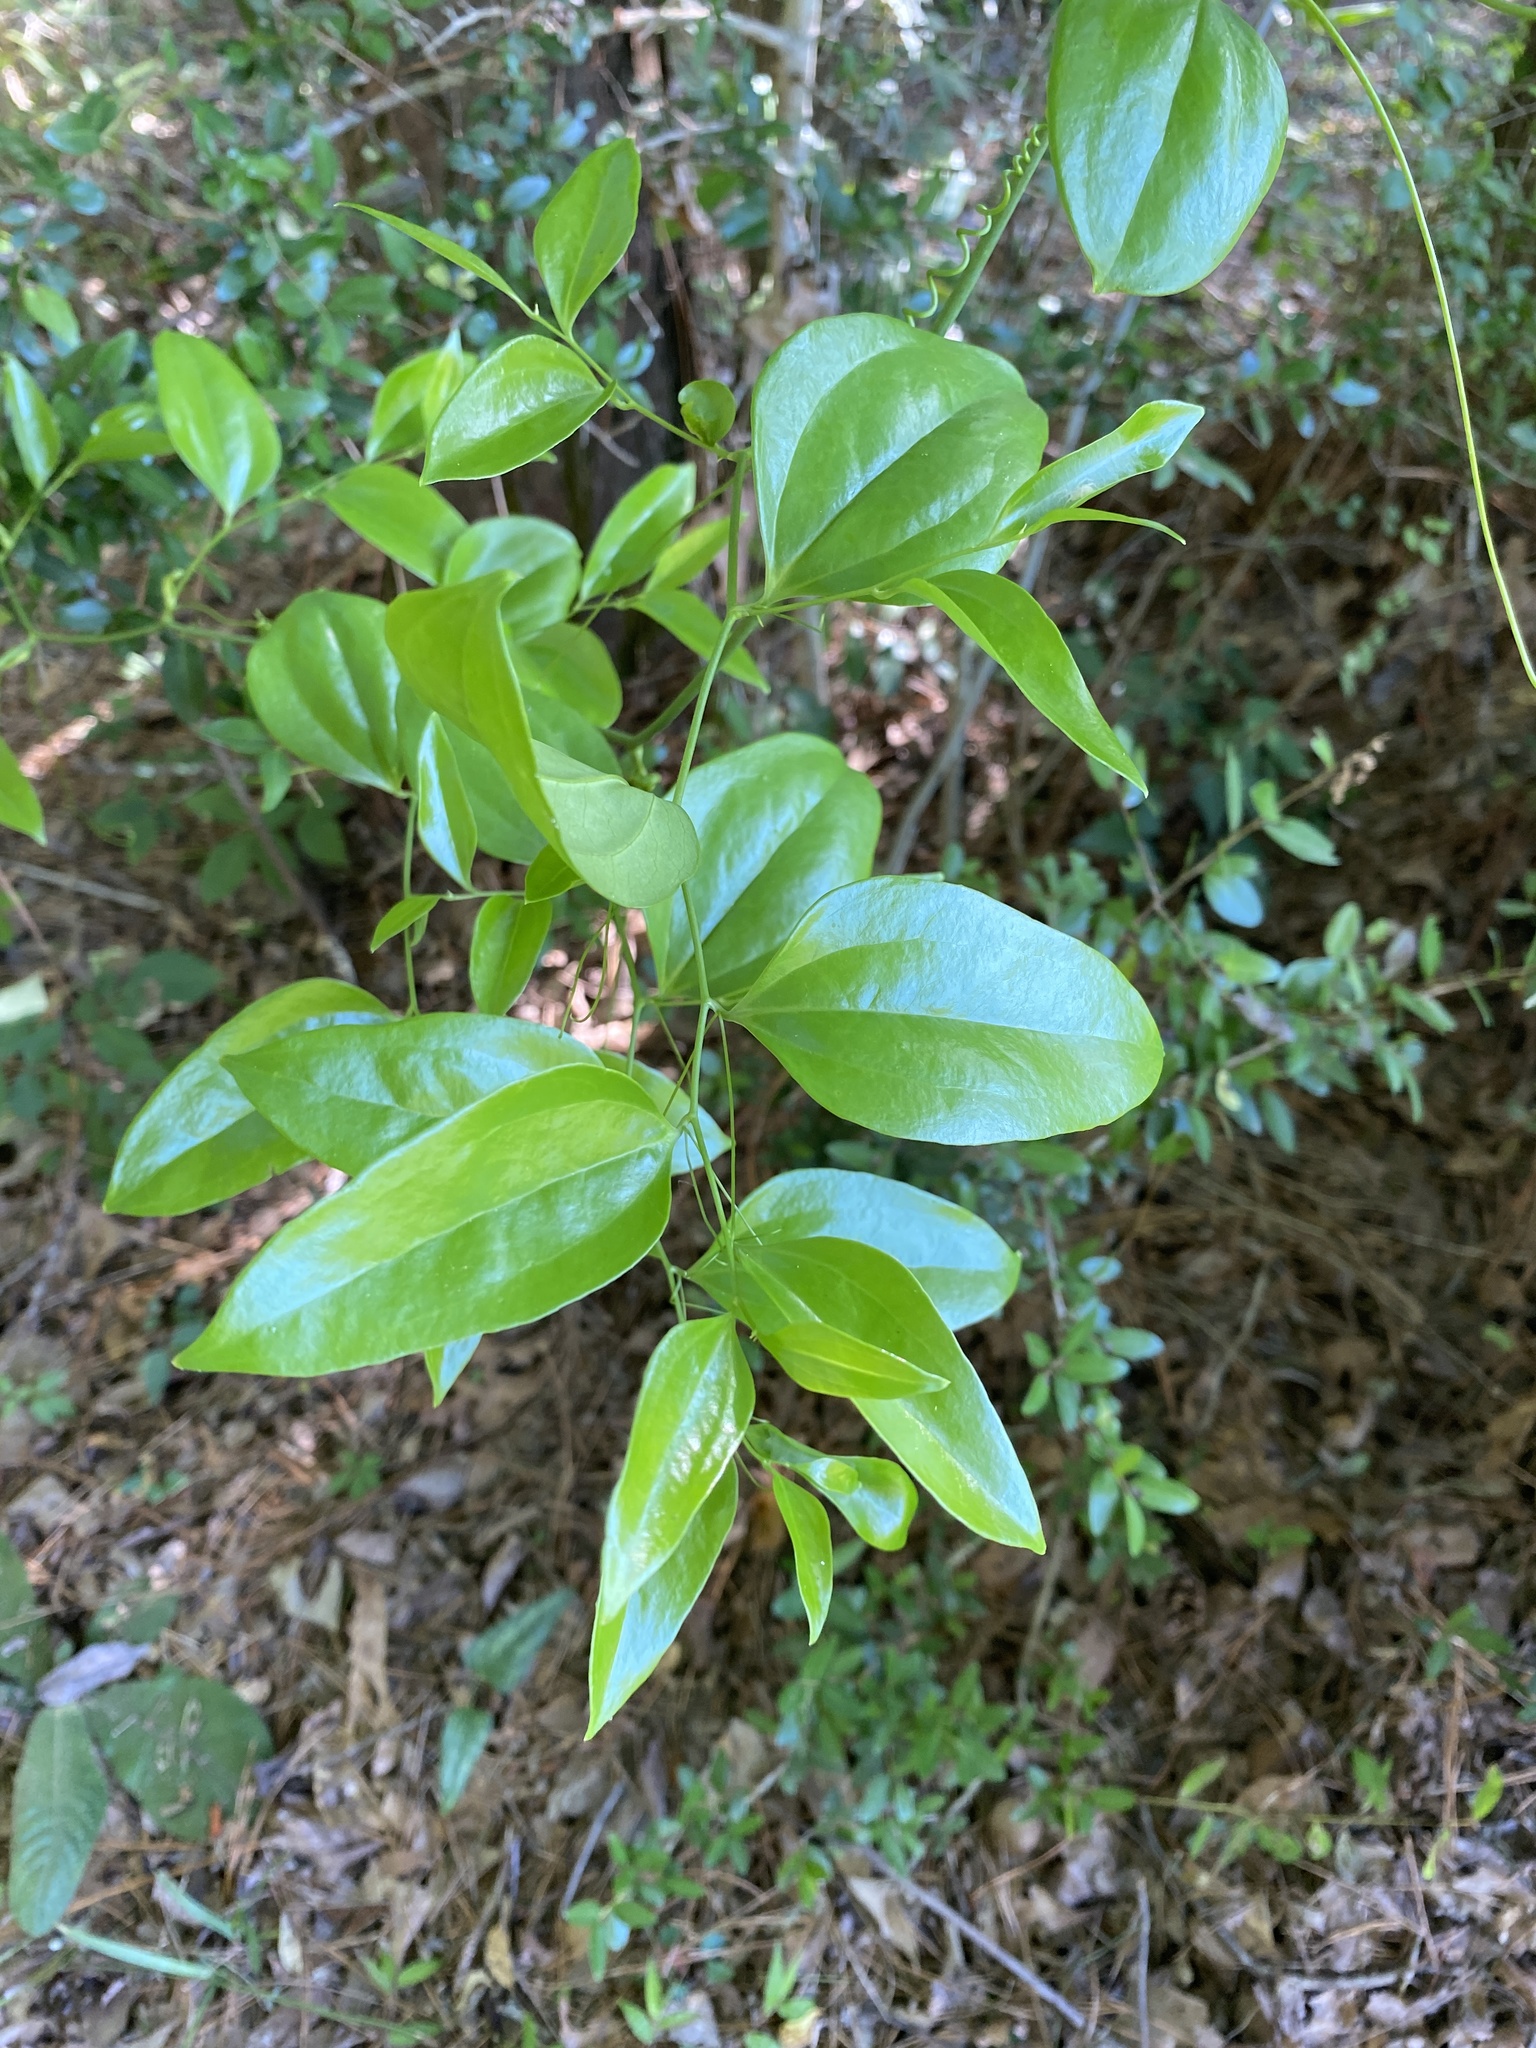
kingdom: Plantae
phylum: Tracheophyta
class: Liliopsida
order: Liliales
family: Smilacaceae
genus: Smilax
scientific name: Smilax maritima
